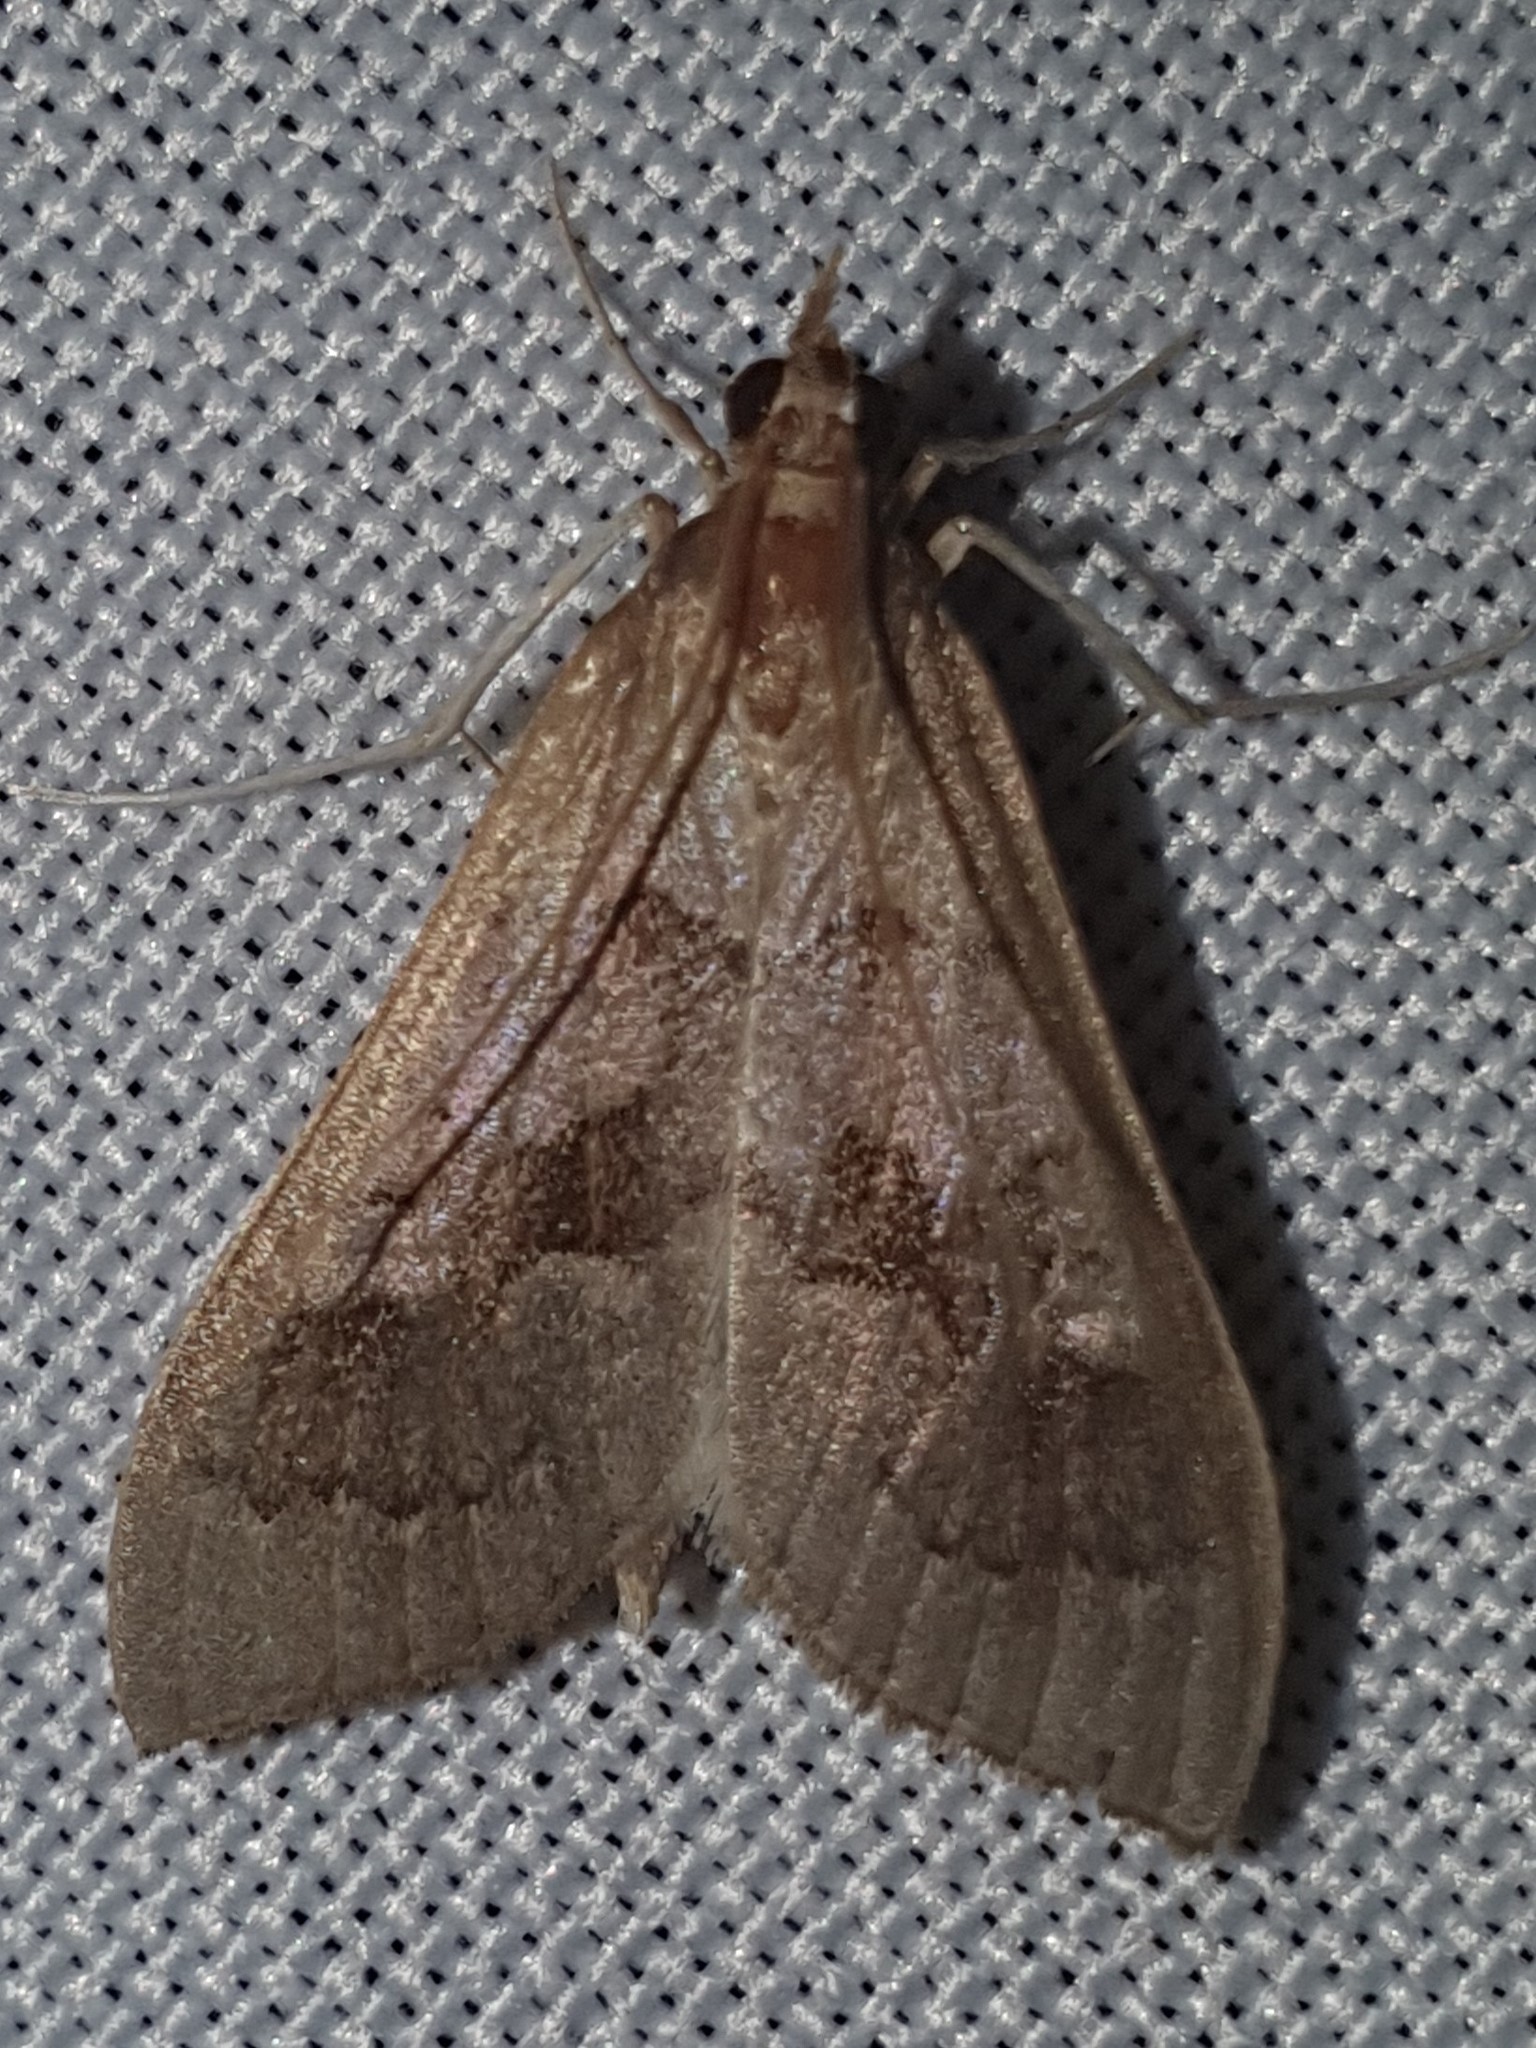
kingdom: Animalia
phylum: Arthropoda
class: Insecta
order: Lepidoptera
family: Crambidae
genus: Mecyna
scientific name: Mecyna asinalis
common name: Coastal pearl
